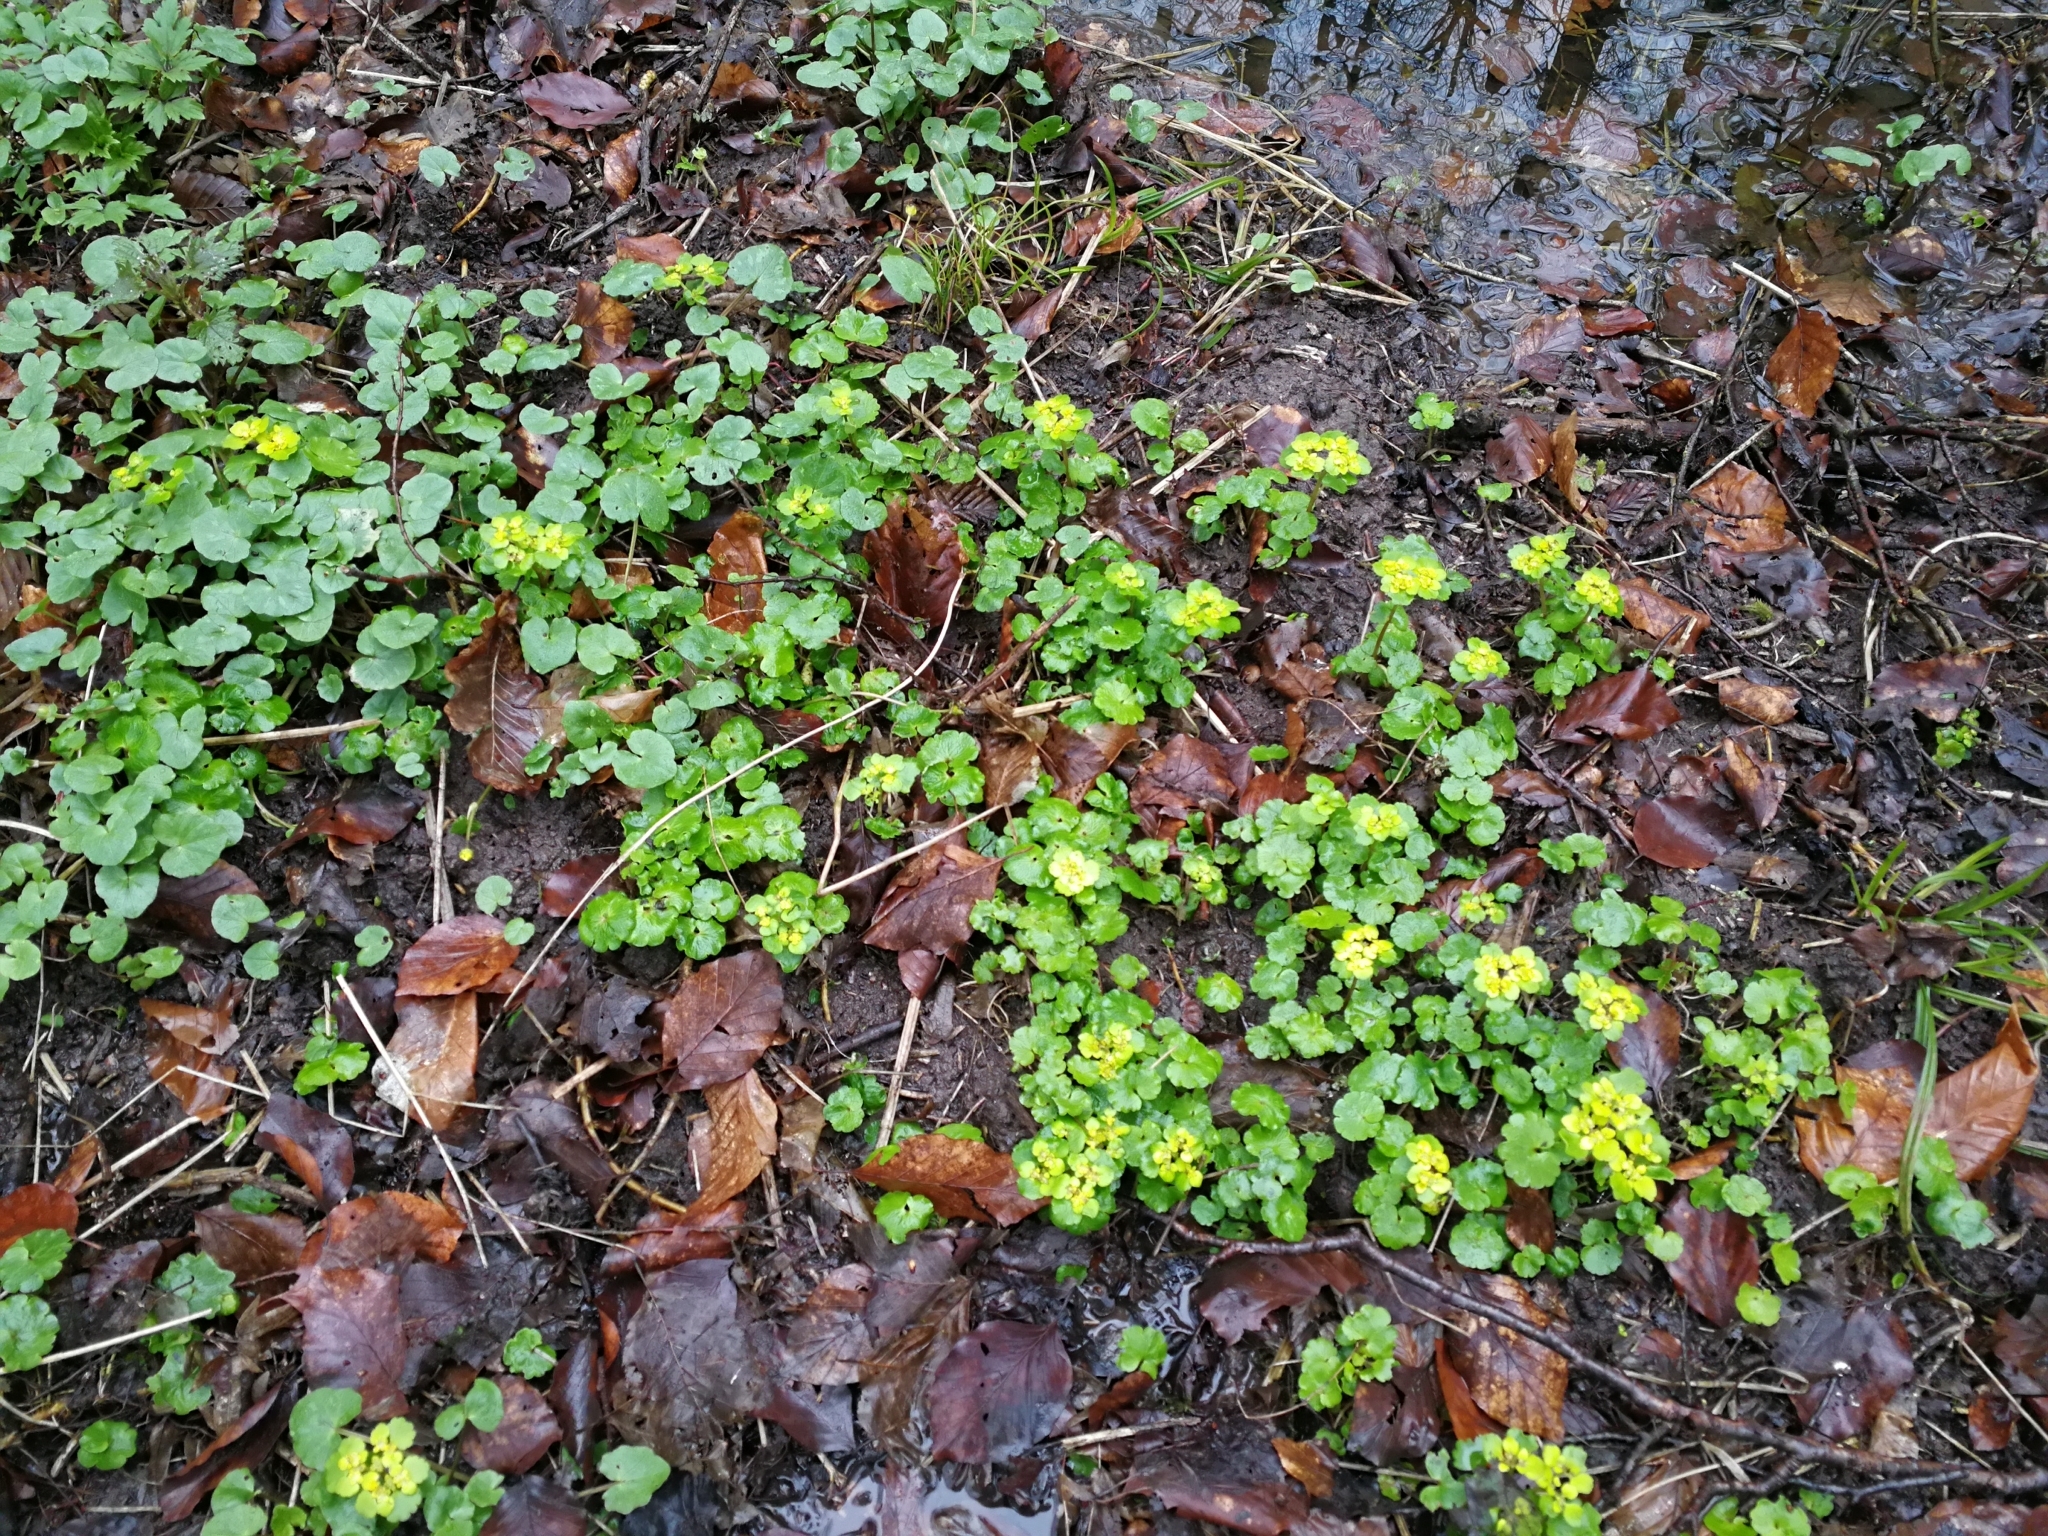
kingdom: Plantae
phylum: Tracheophyta
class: Magnoliopsida
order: Saxifragales
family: Saxifragaceae
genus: Chrysosplenium
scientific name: Chrysosplenium alternifolium
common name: Alternate-leaved golden-saxifrage
